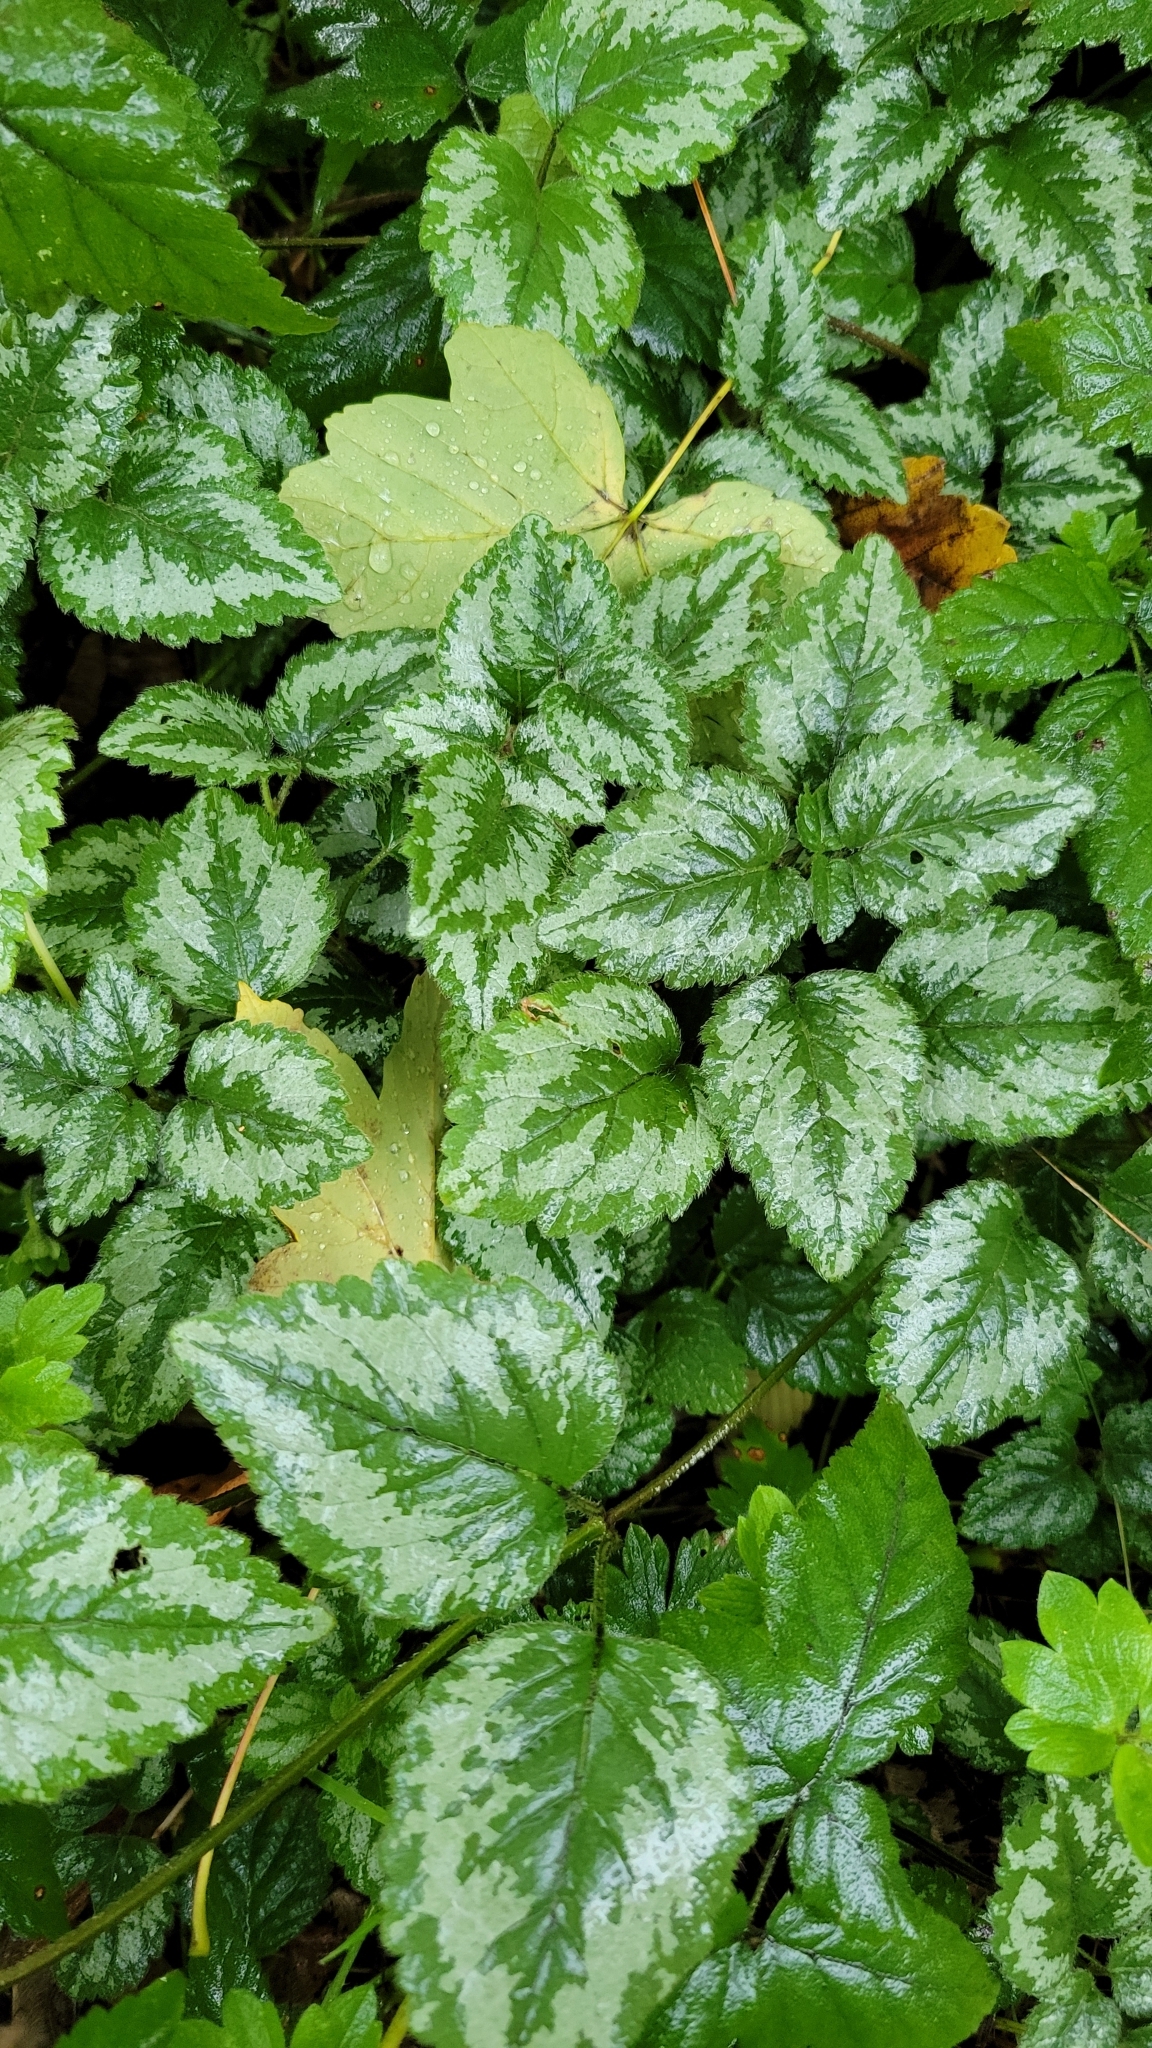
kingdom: Plantae
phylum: Tracheophyta
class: Magnoliopsida
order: Lamiales
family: Lamiaceae
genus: Lamium
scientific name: Lamium galeobdolon
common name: Yellow archangel
